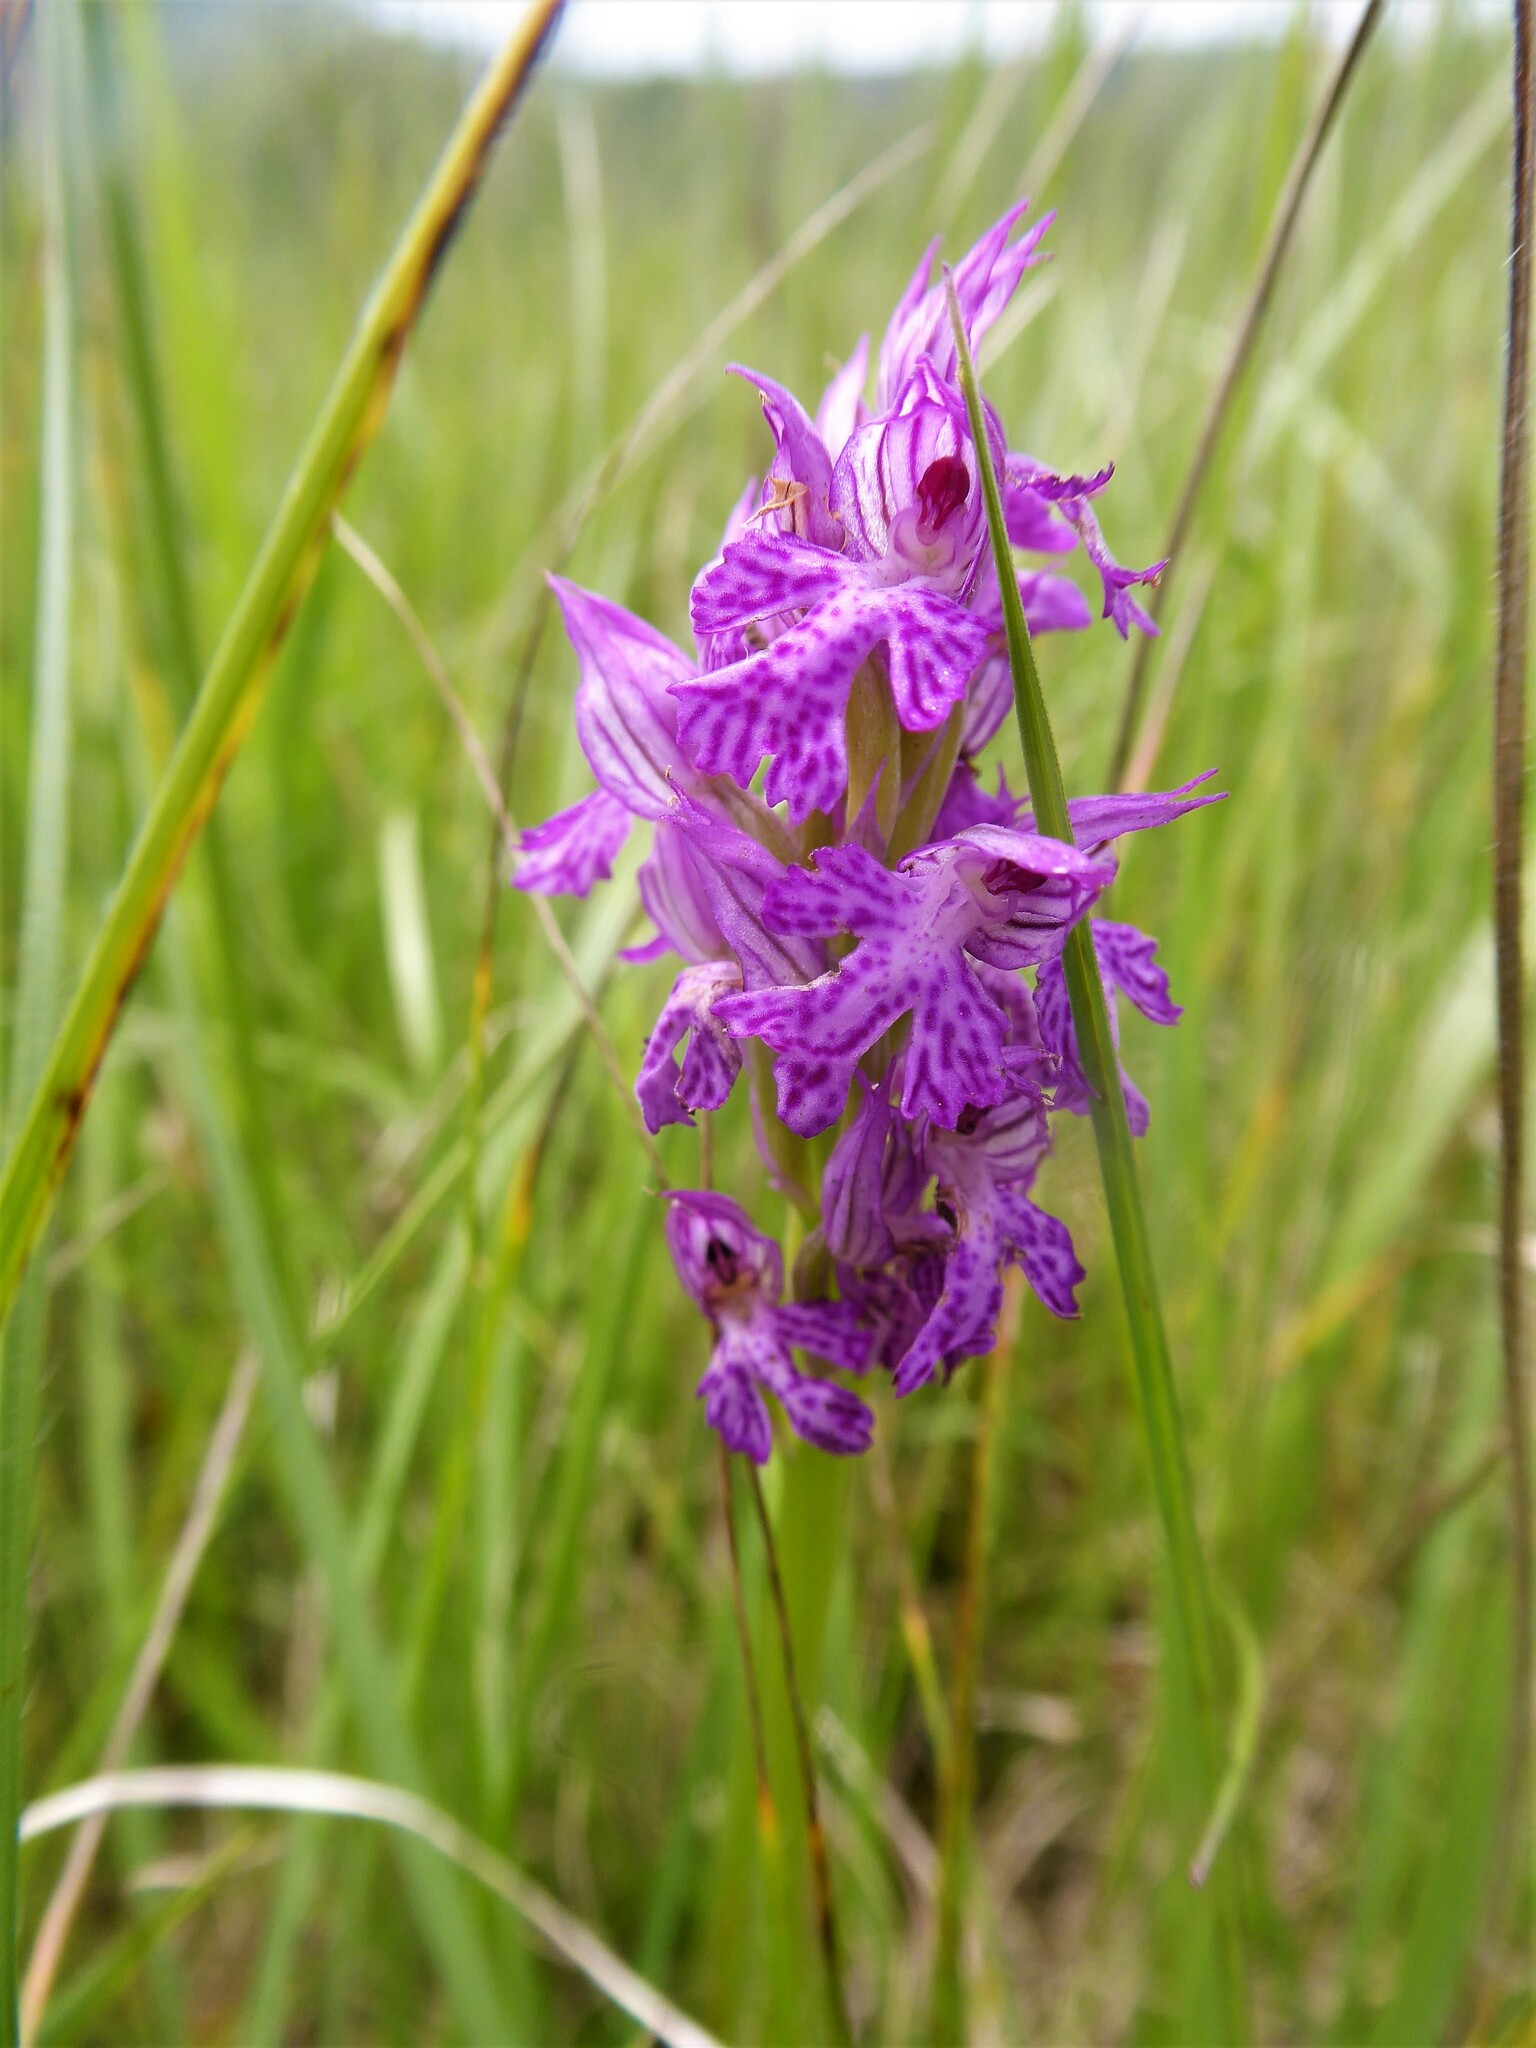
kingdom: Plantae
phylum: Tracheophyta
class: Liliopsida
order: Asparagales
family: Orchidaceae
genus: Neotinea
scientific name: Neotinea tridentata
